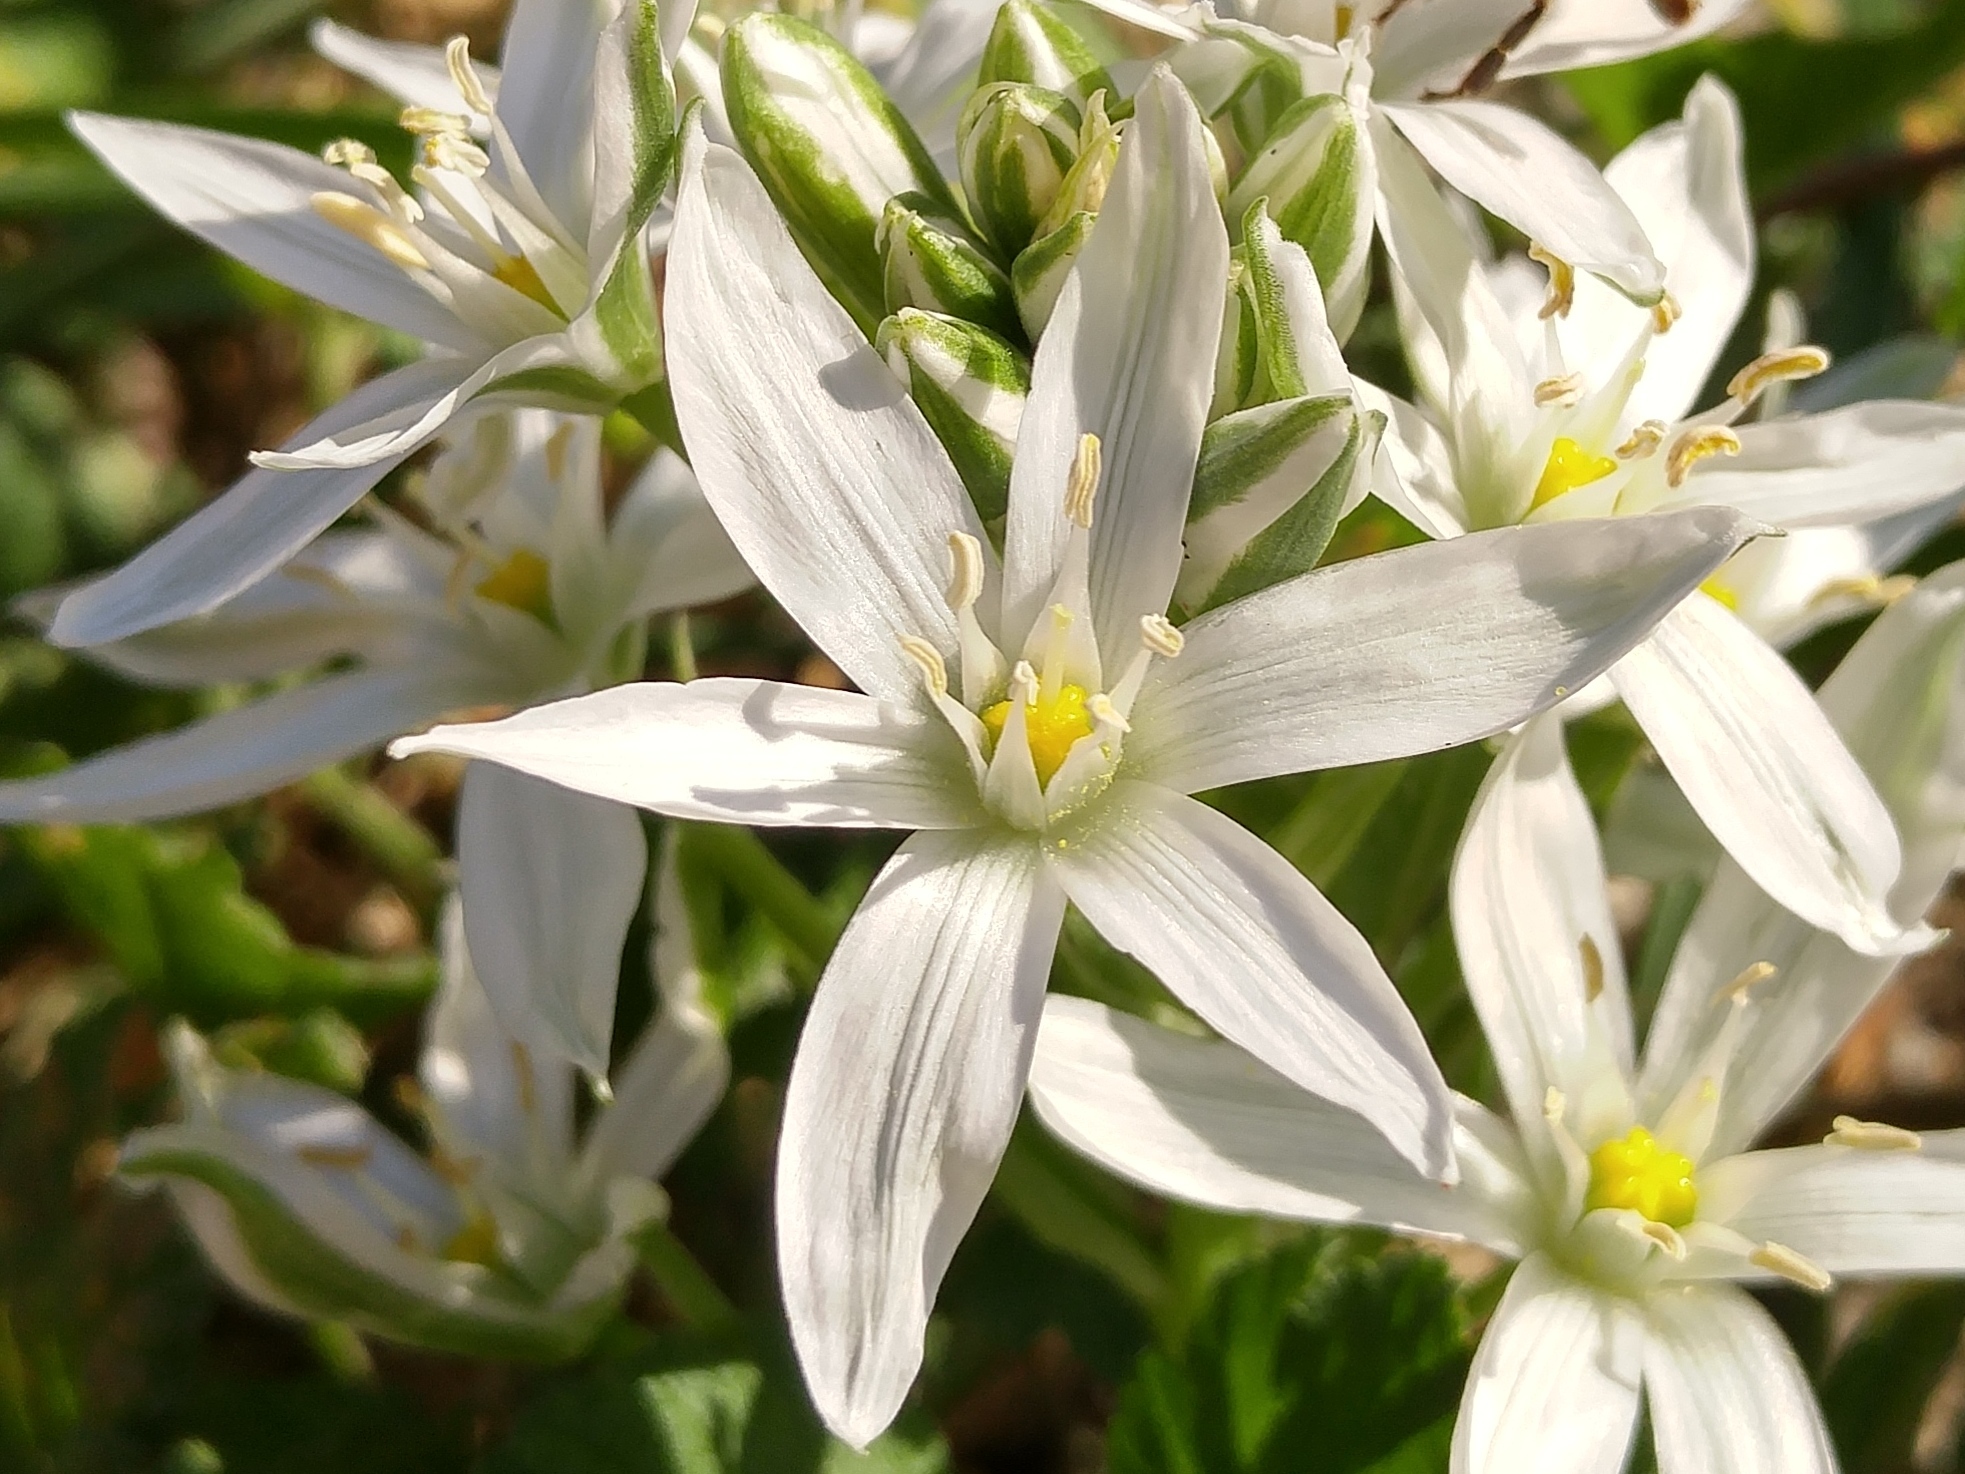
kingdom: Plantae
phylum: Tracheophyta
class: Liliopsida
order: Asparagales
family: Asparagaceae
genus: Ornithogalum
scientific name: Ornithogalum baeticum
